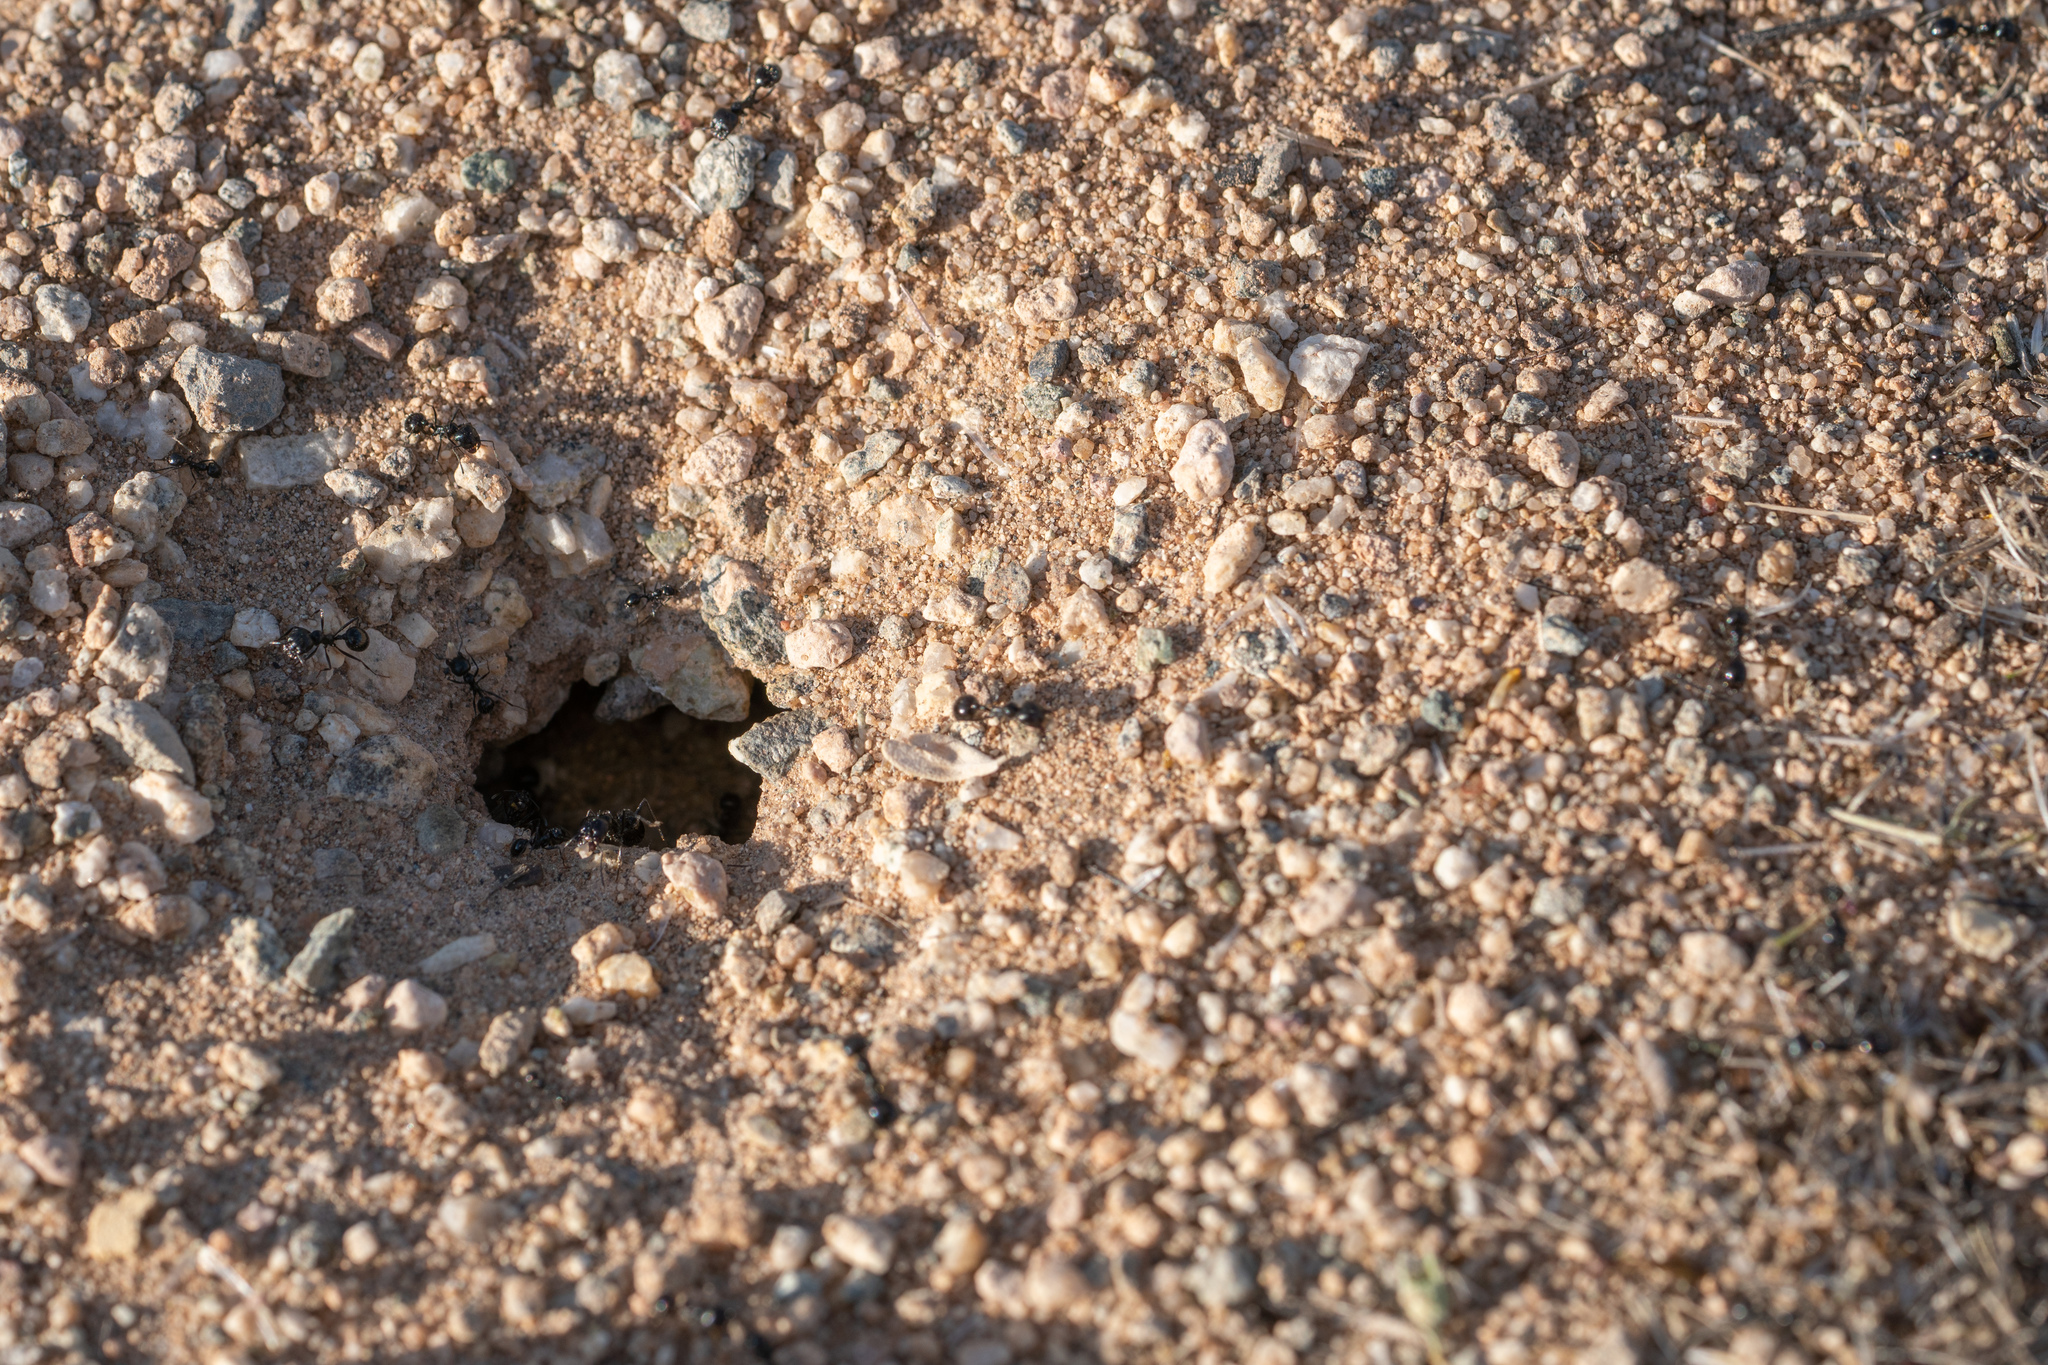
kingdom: Animalia
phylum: Arthropoda
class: Insecta
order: Hymenoptera
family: Formicidae
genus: Messor
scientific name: Messor pergandei
